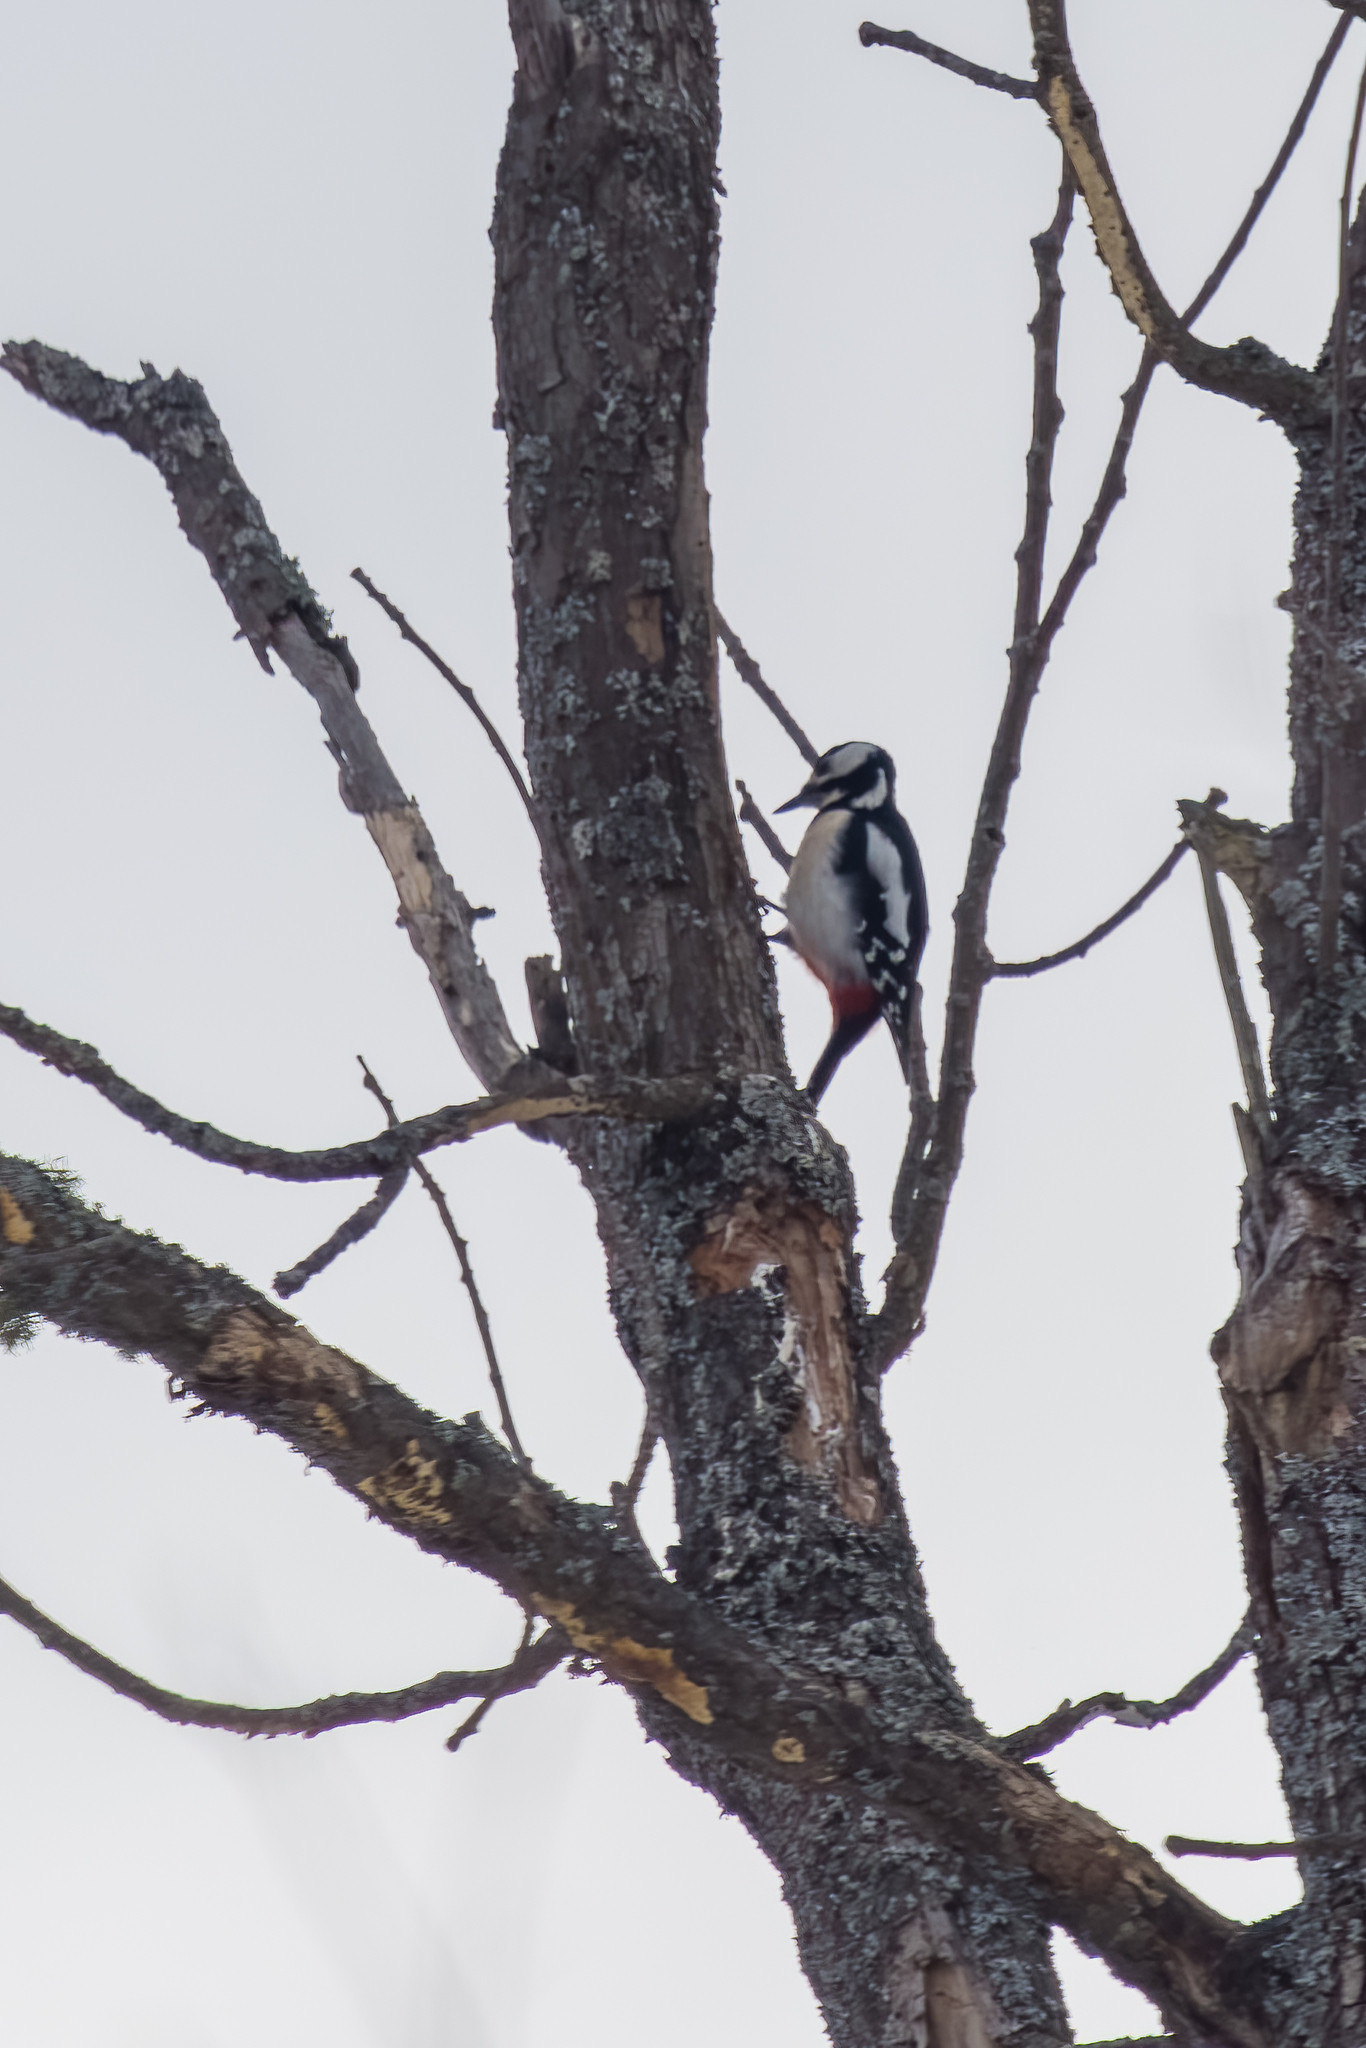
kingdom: Animalia
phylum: Chordata
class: Aves
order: Piciformes
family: Picidae
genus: Dendrocopos
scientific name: Dendrocopos major
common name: Great spotted woodpecker
